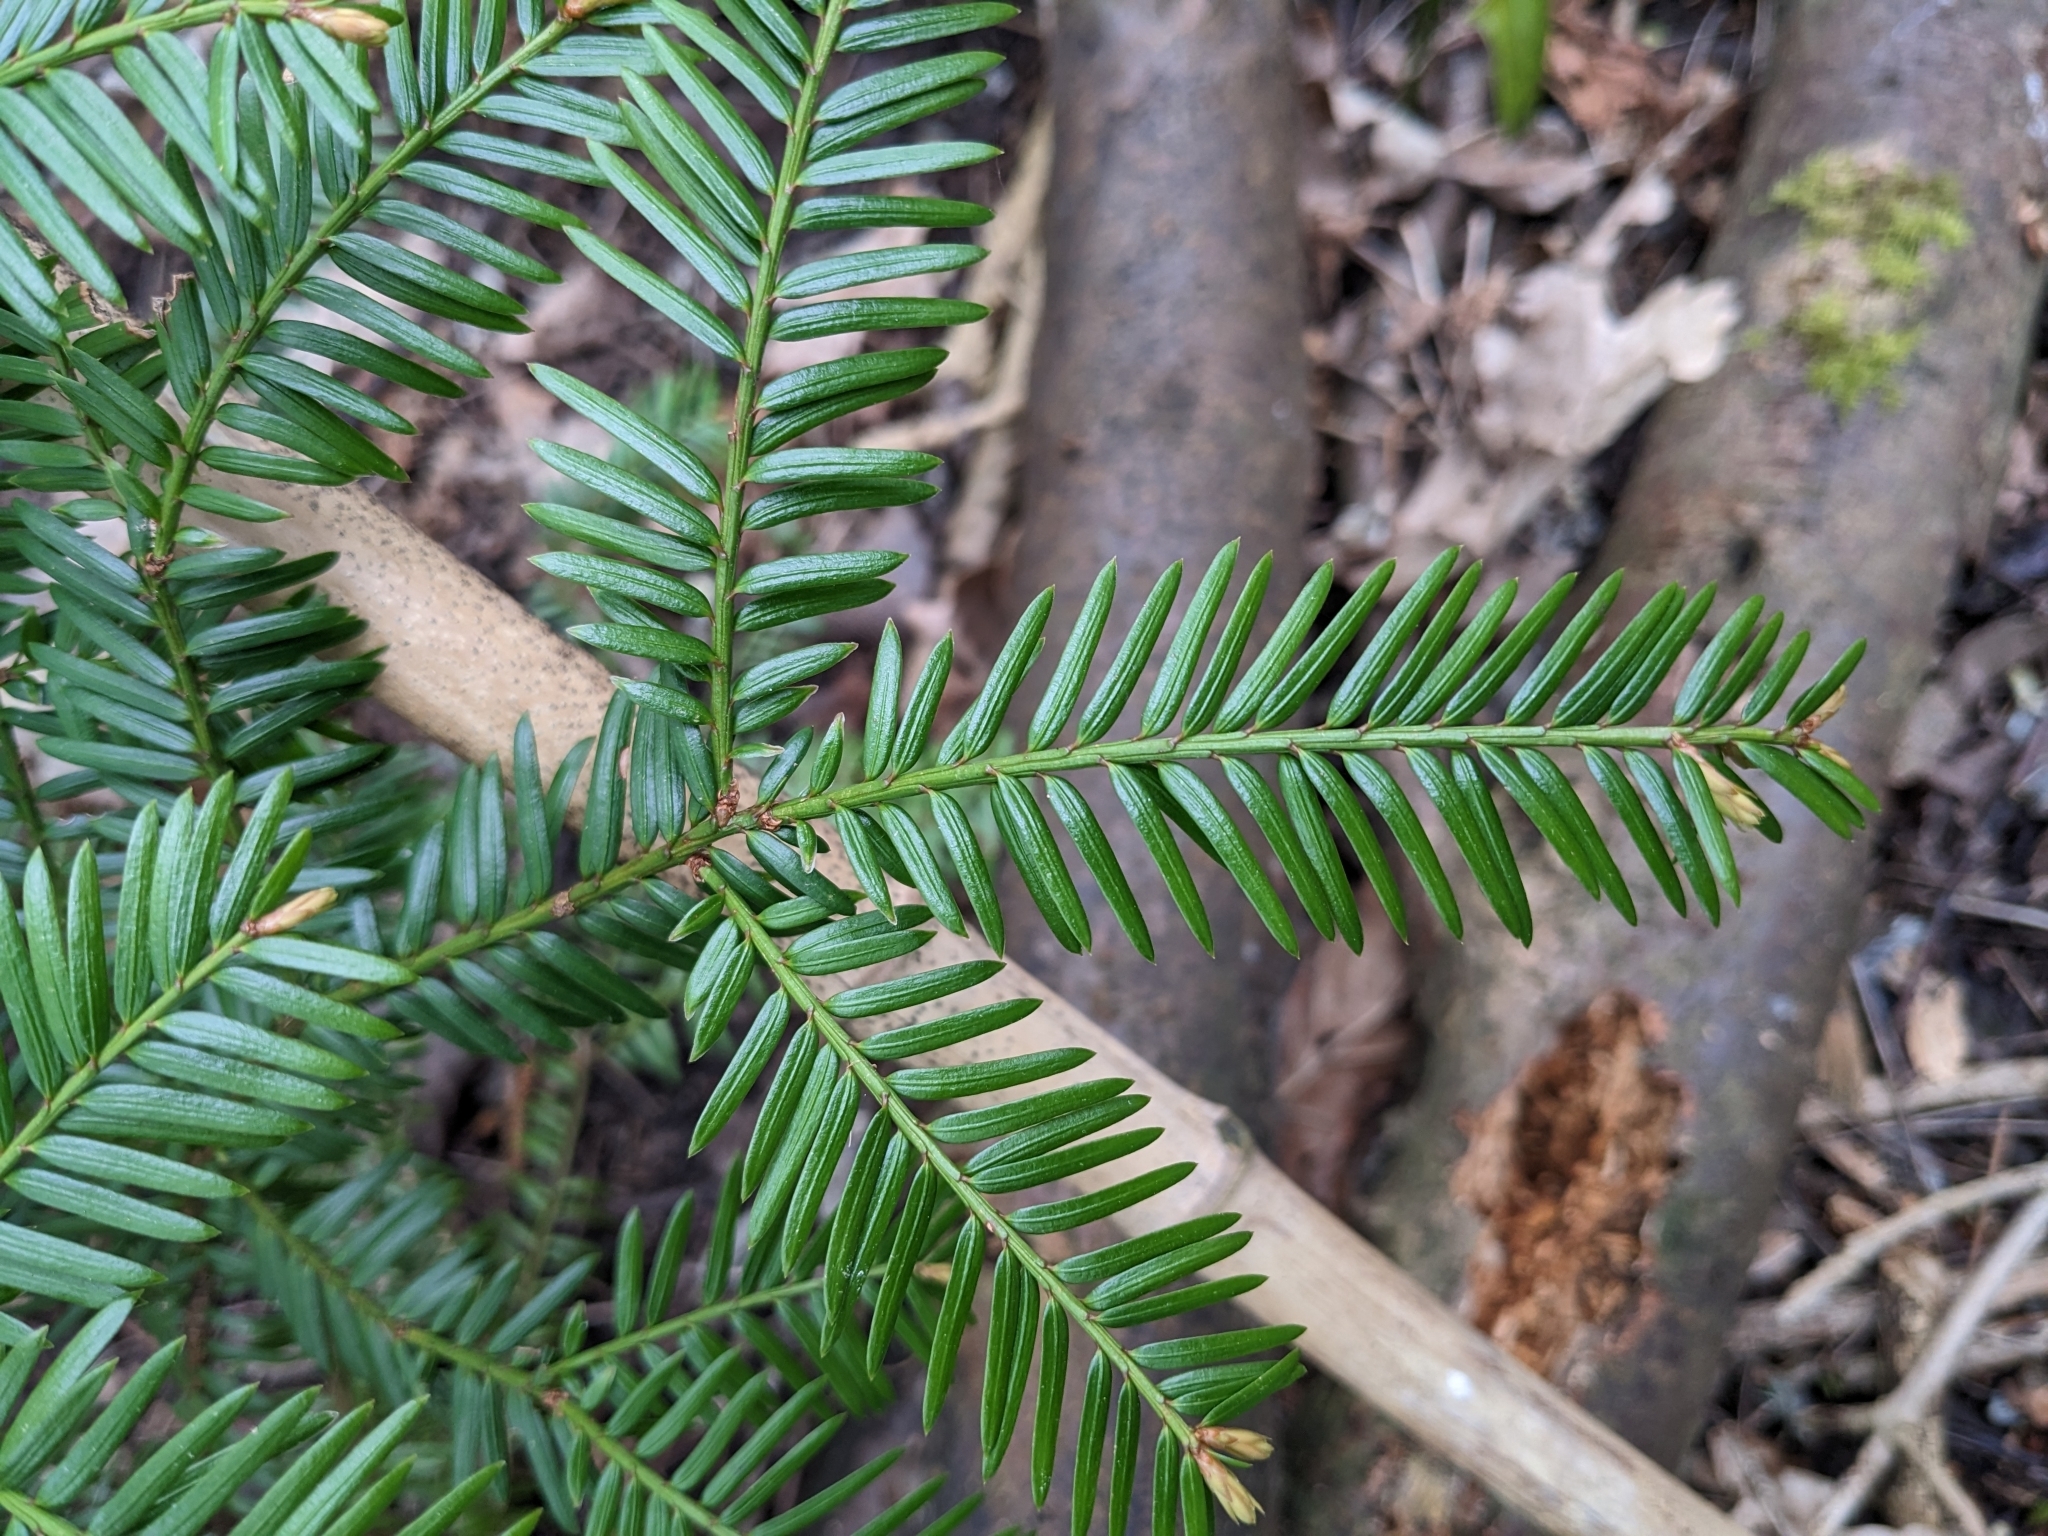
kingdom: Plantae
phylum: Tracheophyta
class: Pinopsida
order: Pinales
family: Taxaceae
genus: Taxus
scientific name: Taxus baccata
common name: Yew
